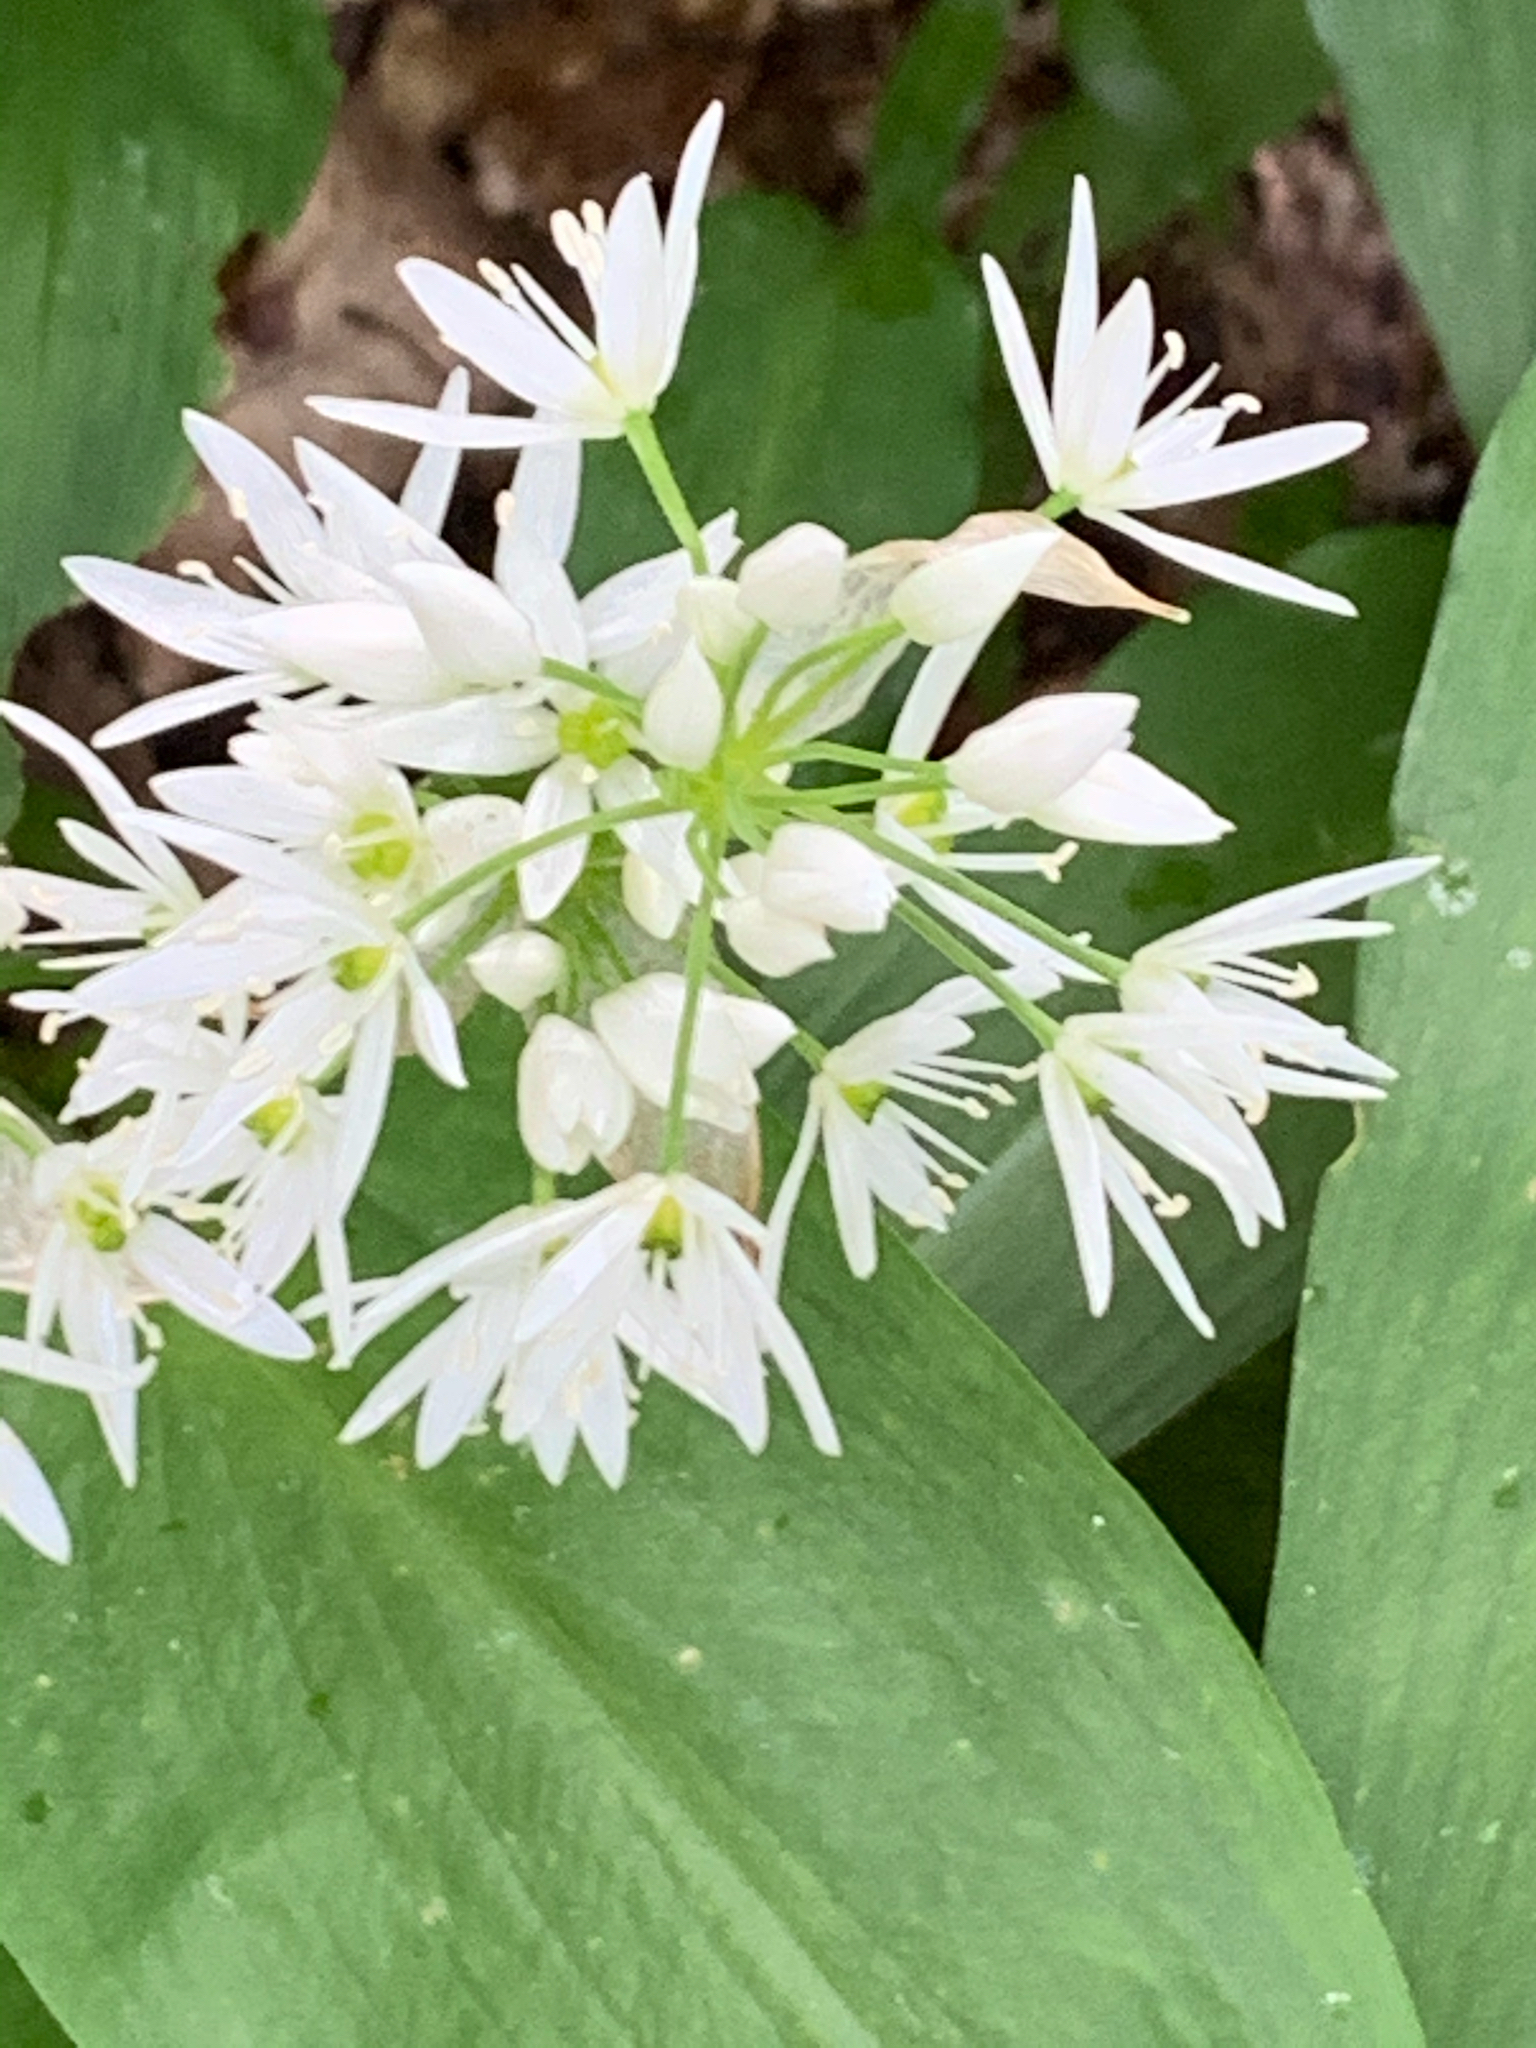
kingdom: Plantae
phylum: Tracheophyta
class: Liliopsida
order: Asparagales
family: Amaryllidaceae
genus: Allium
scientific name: Allium ursinum
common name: Ramsons
